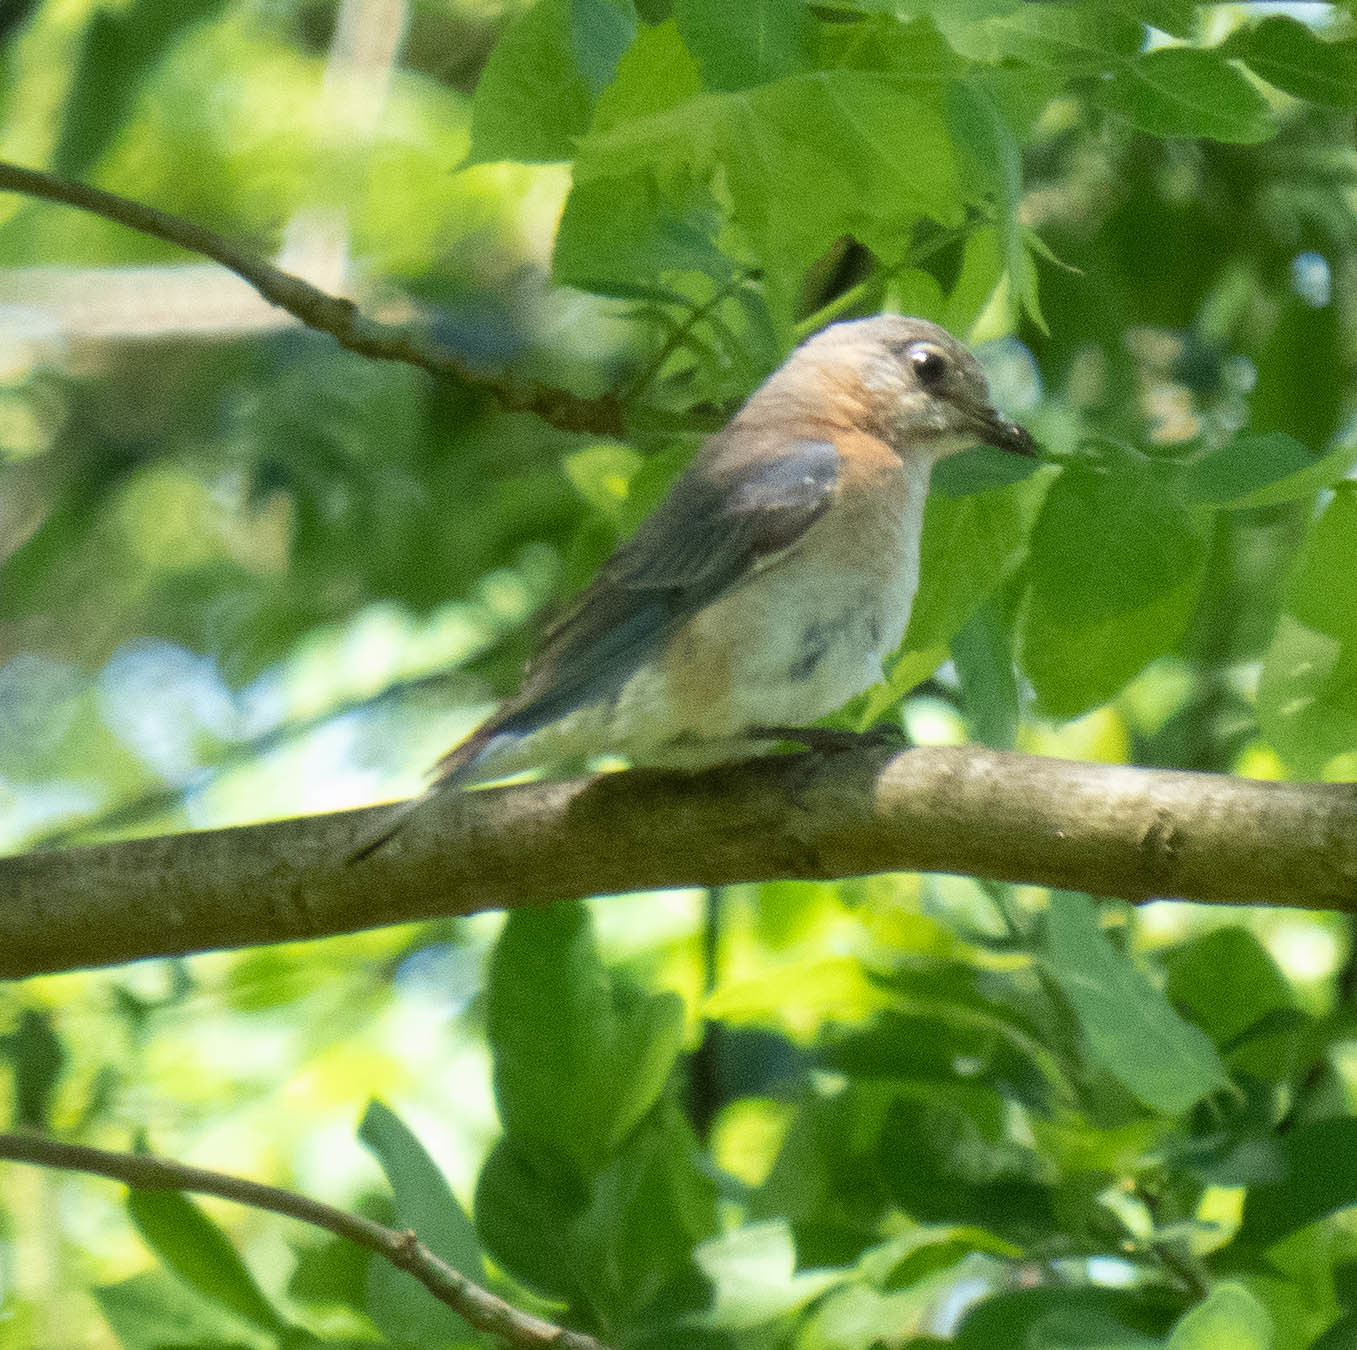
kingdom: Animalia
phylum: Chordata
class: Aves
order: Passeriformes
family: Turdidae
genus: Sialia
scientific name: Sialia sialis
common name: Eastern bluebird
